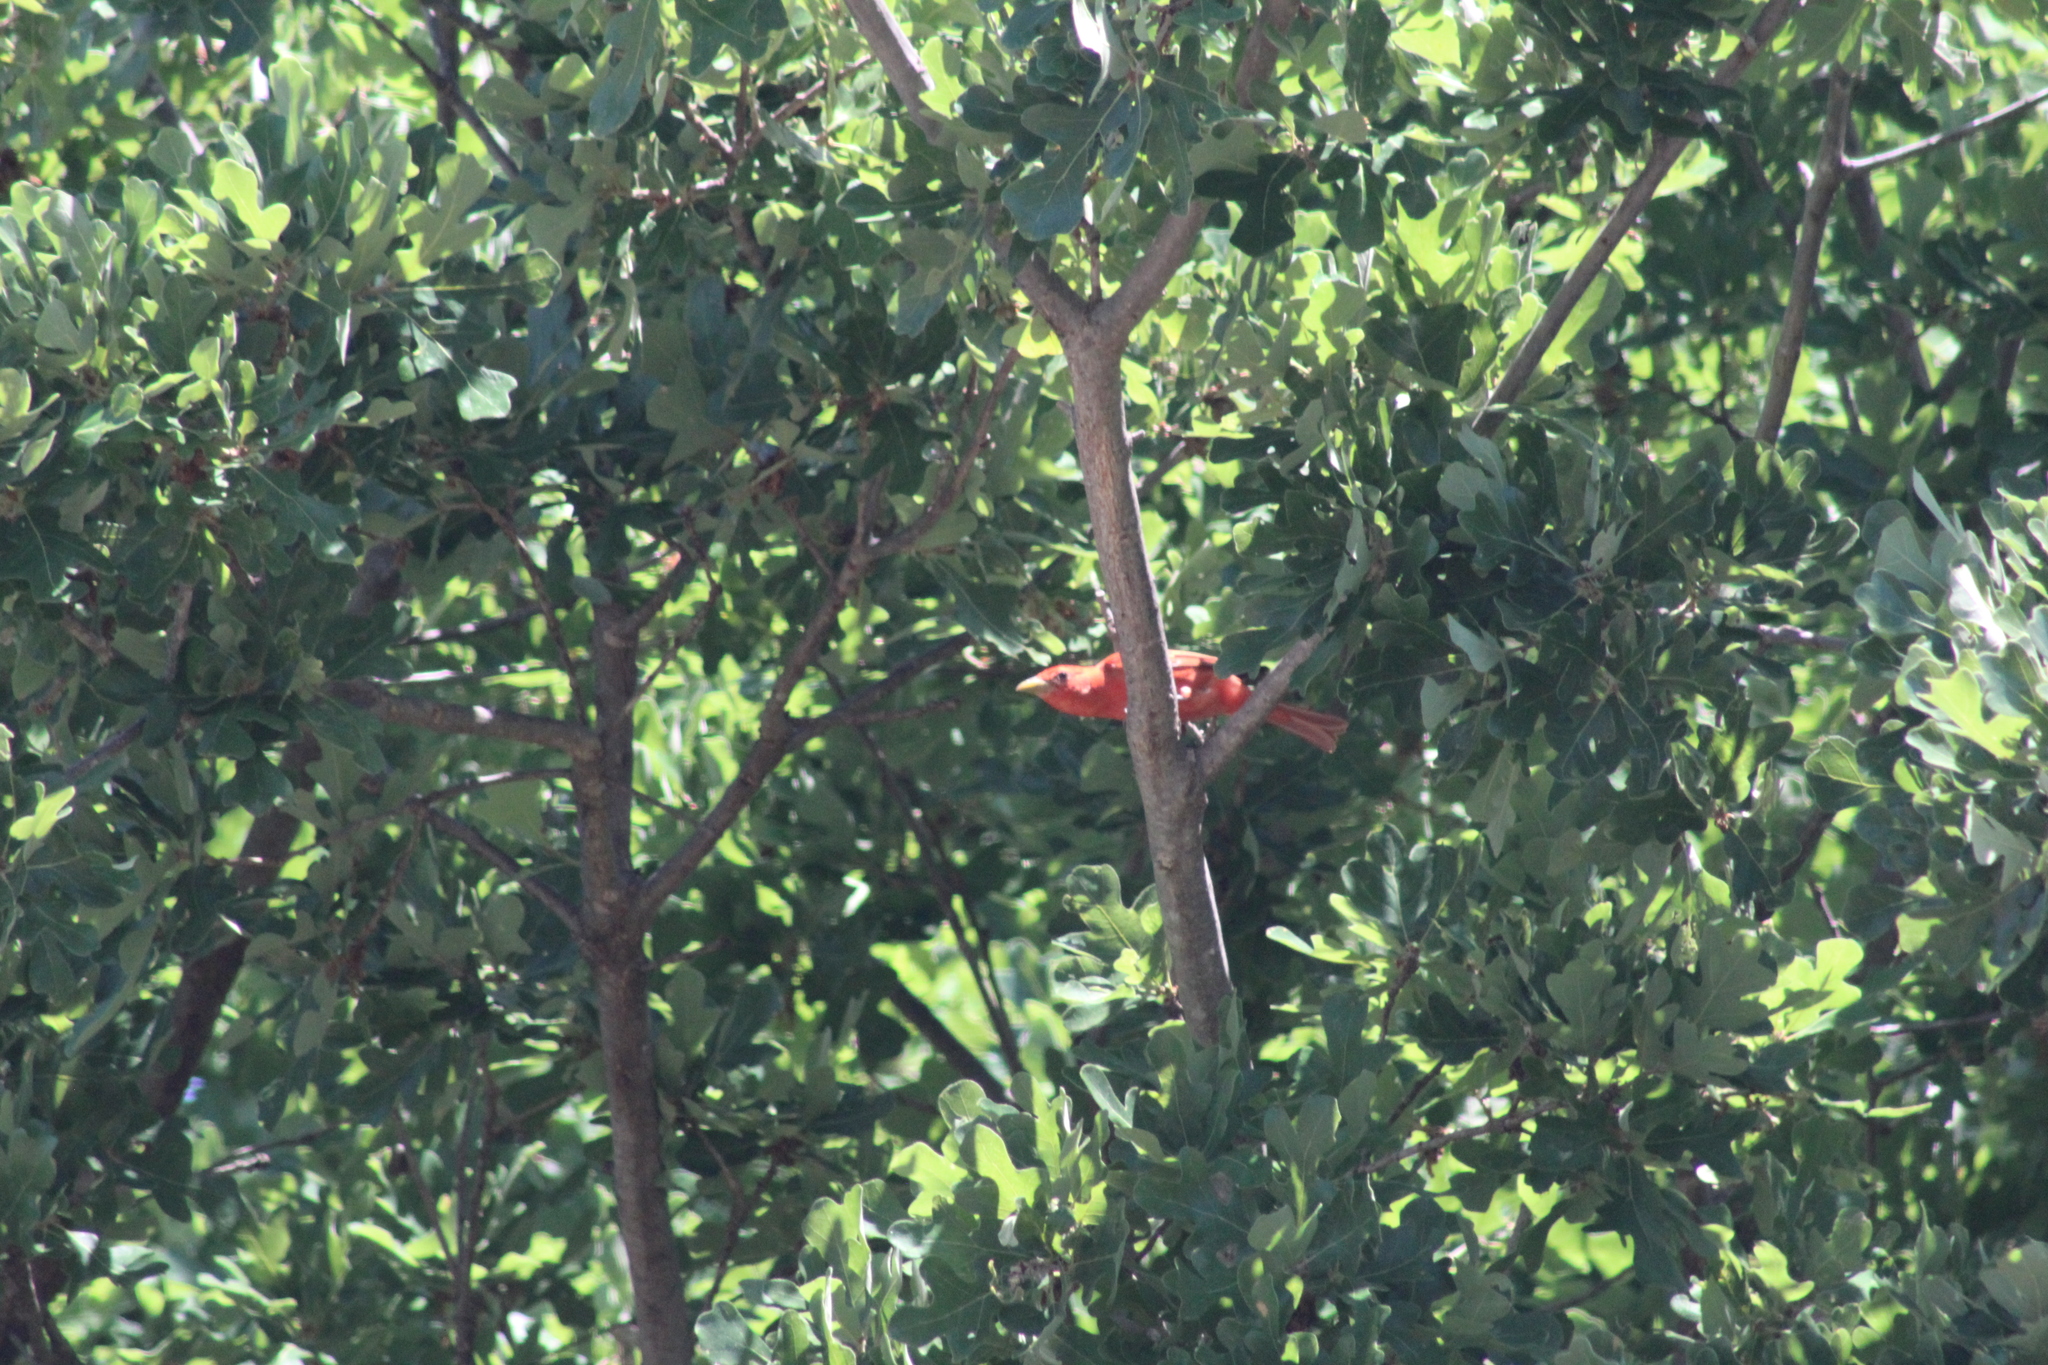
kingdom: Animalia
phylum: Chordata
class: Aves
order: Passeriformes
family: Cardinalidae
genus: Piranga
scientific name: Piranga rubra
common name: Summer tanager
